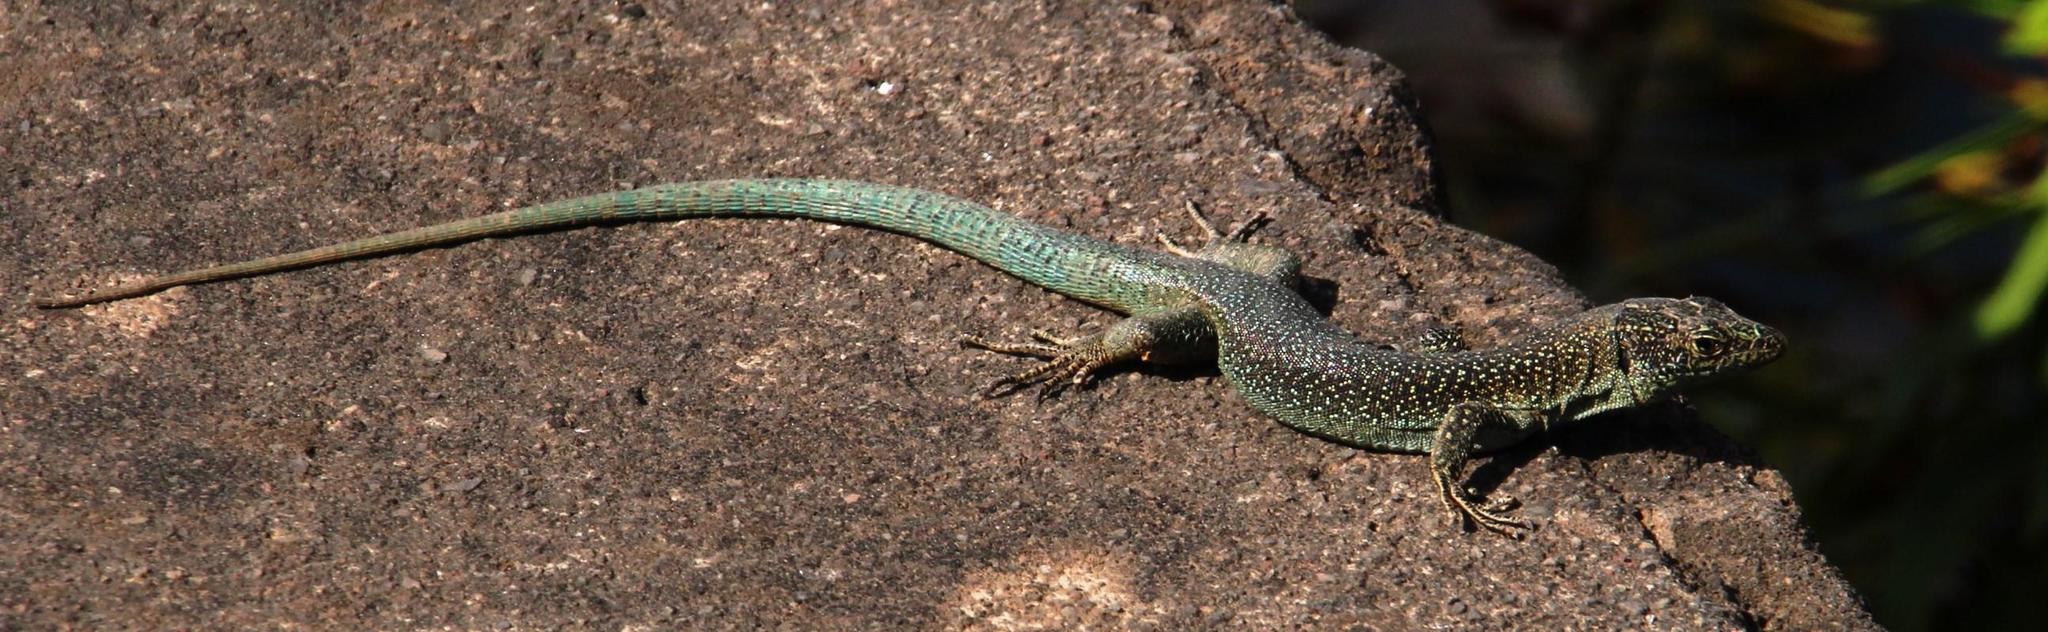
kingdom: Animalia
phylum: Chordata
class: Squamata
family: Lacertidae
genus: Teira
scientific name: Teira dugesii
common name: Madeira lizard
